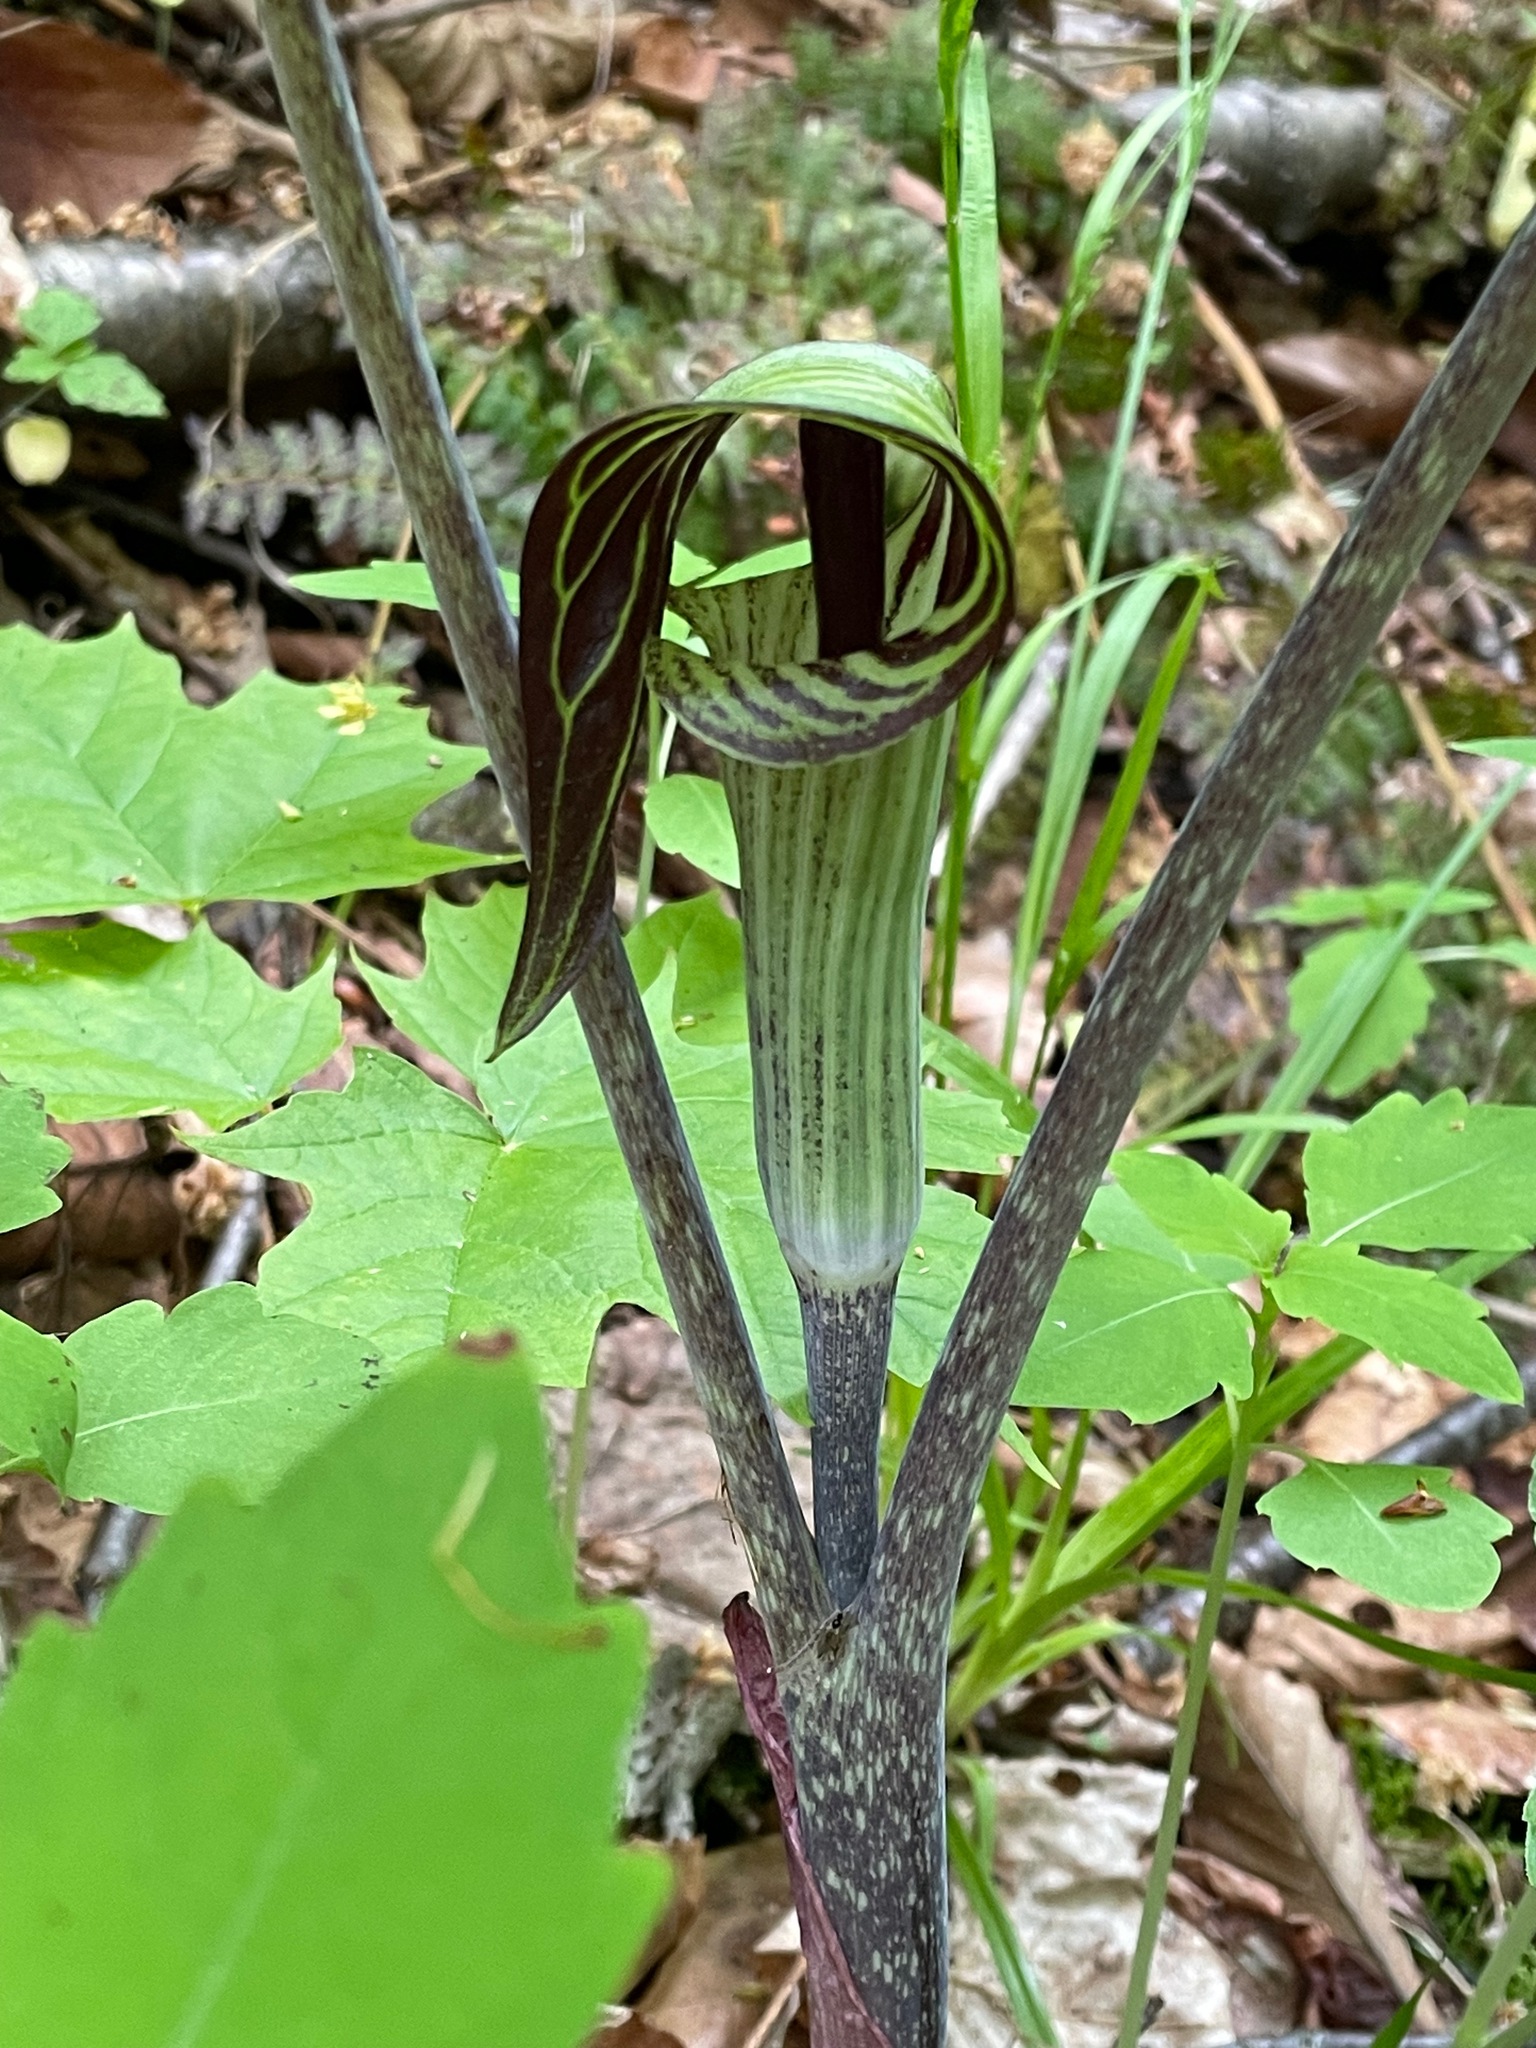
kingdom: Plantae
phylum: Tracheophyta
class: Liliopsida
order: Alismatales
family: Araceae
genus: Arisaema
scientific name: Arisaema triphyllum
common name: Jack-in-the-pulpit
